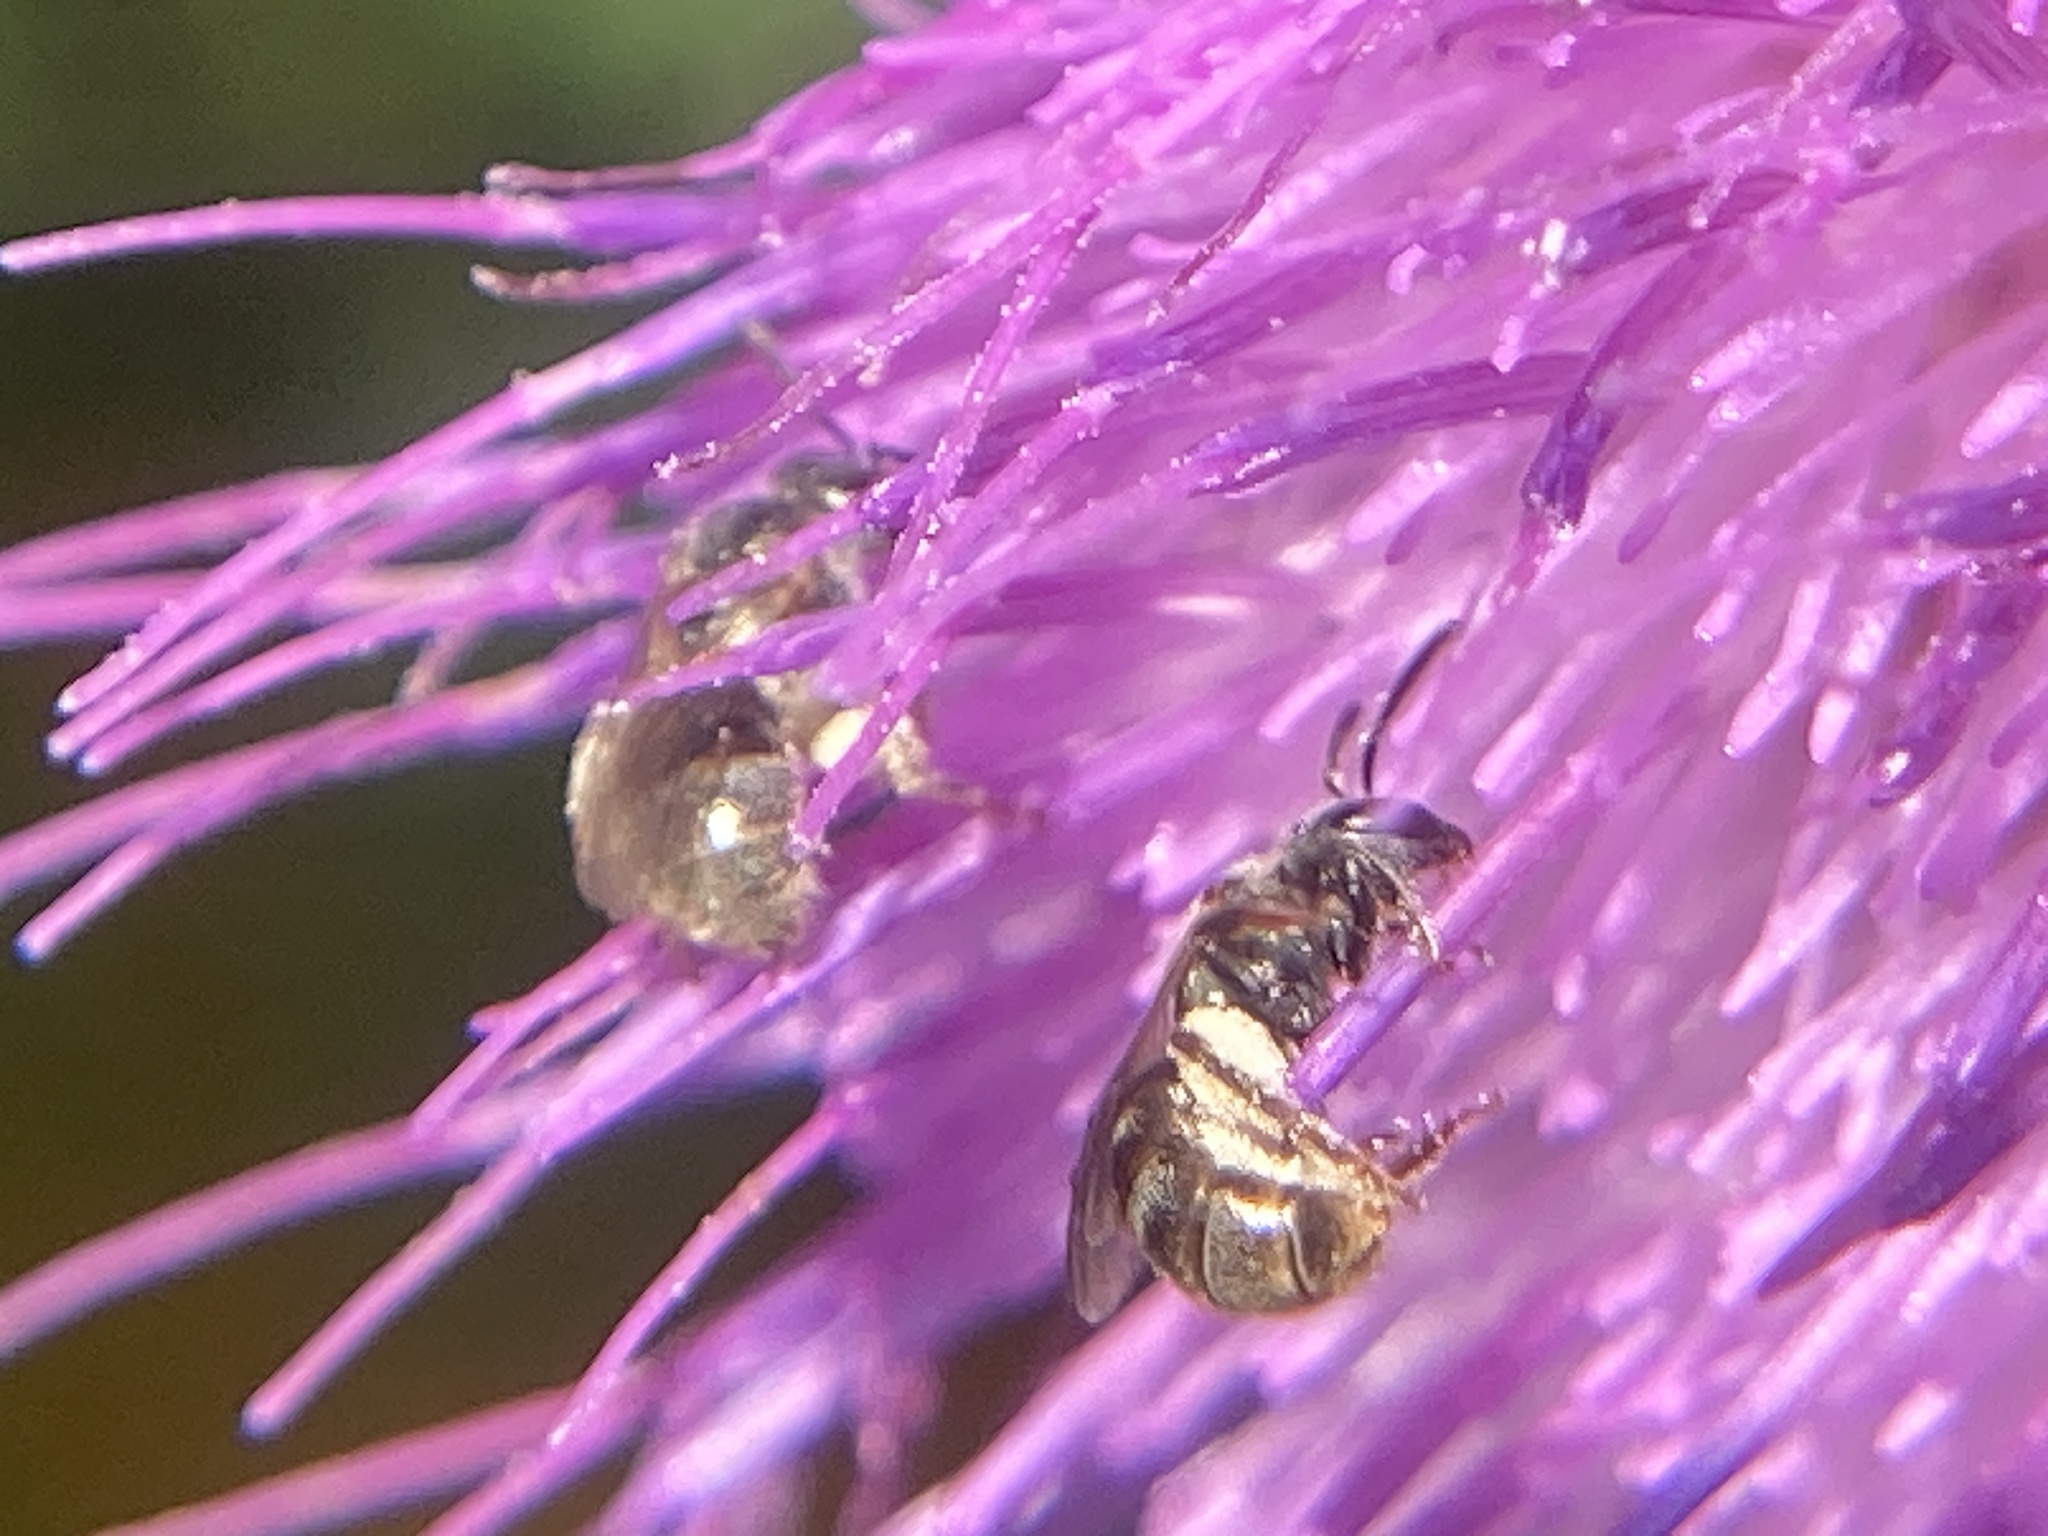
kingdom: Animalia
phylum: Arthropoda
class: Insecta
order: Hymenoptera
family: Halictidae
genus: Dialictus
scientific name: Dialictus
